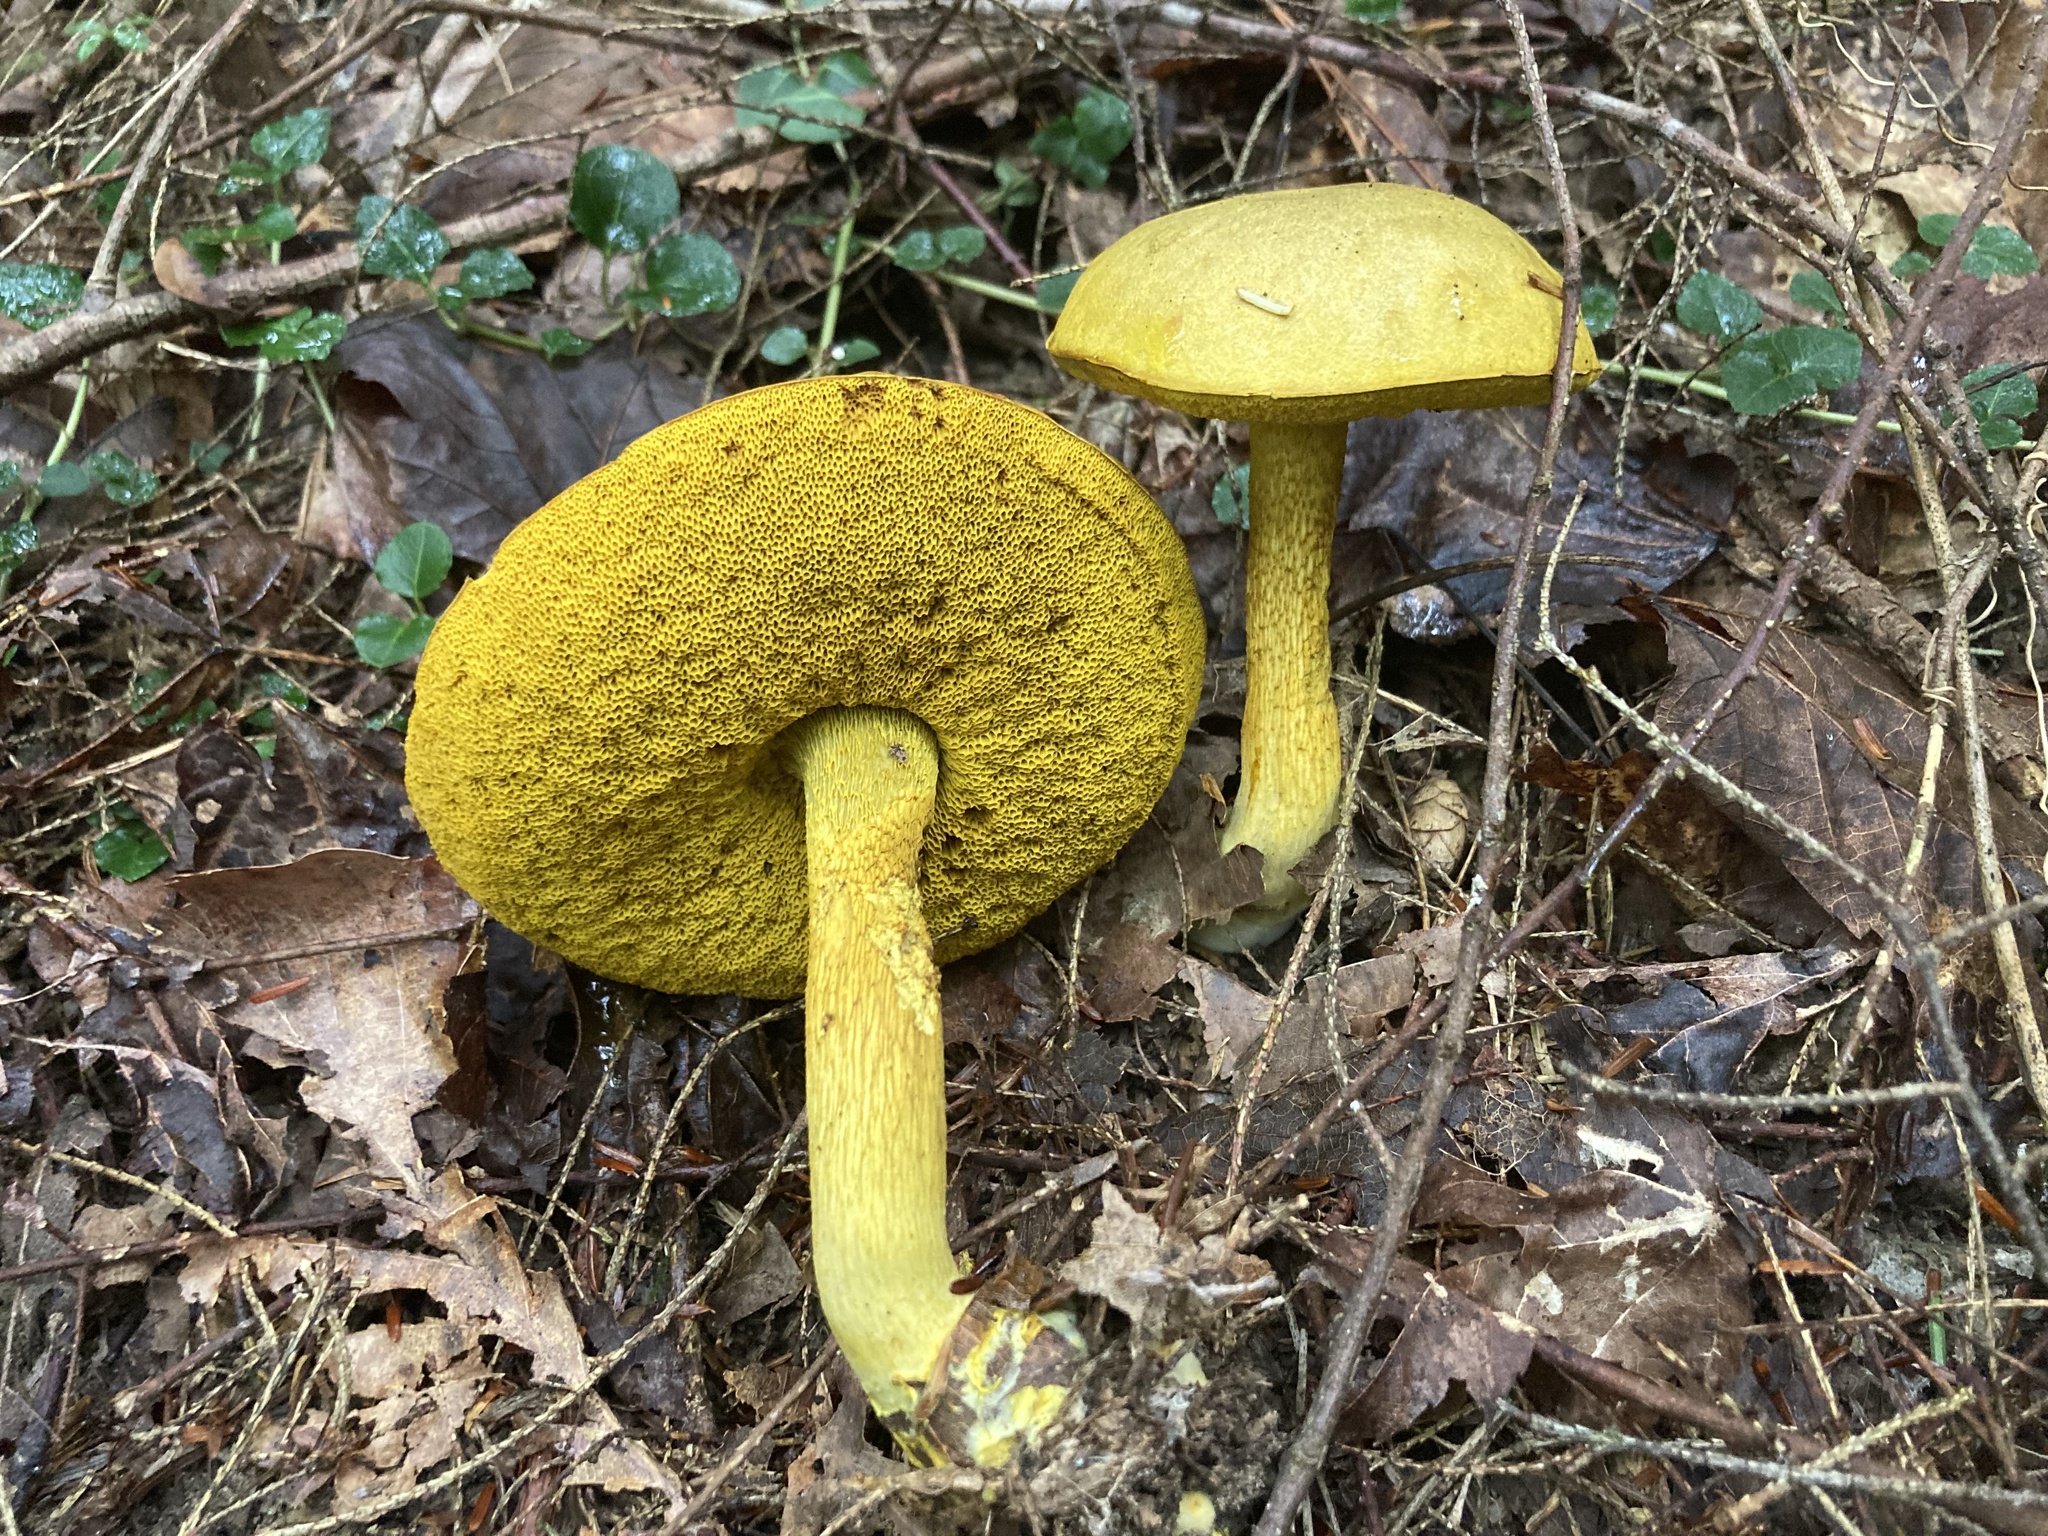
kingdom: Fungi
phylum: Basidiomycota
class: Agaricomycetes
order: Boletales
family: Boletaceae
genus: Retiboletus
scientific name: Retiboletus ornatipes
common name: Ornate-stalked bolete
